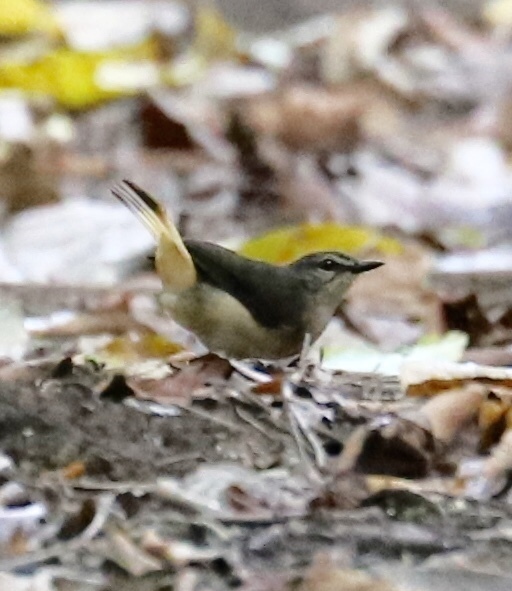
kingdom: Animalia
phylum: Chordata
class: Aves
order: Passeriformes
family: Parulidae
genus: Myiothlypis
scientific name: Myiothlypis fulvicauda
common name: Buff-rumped warbler
